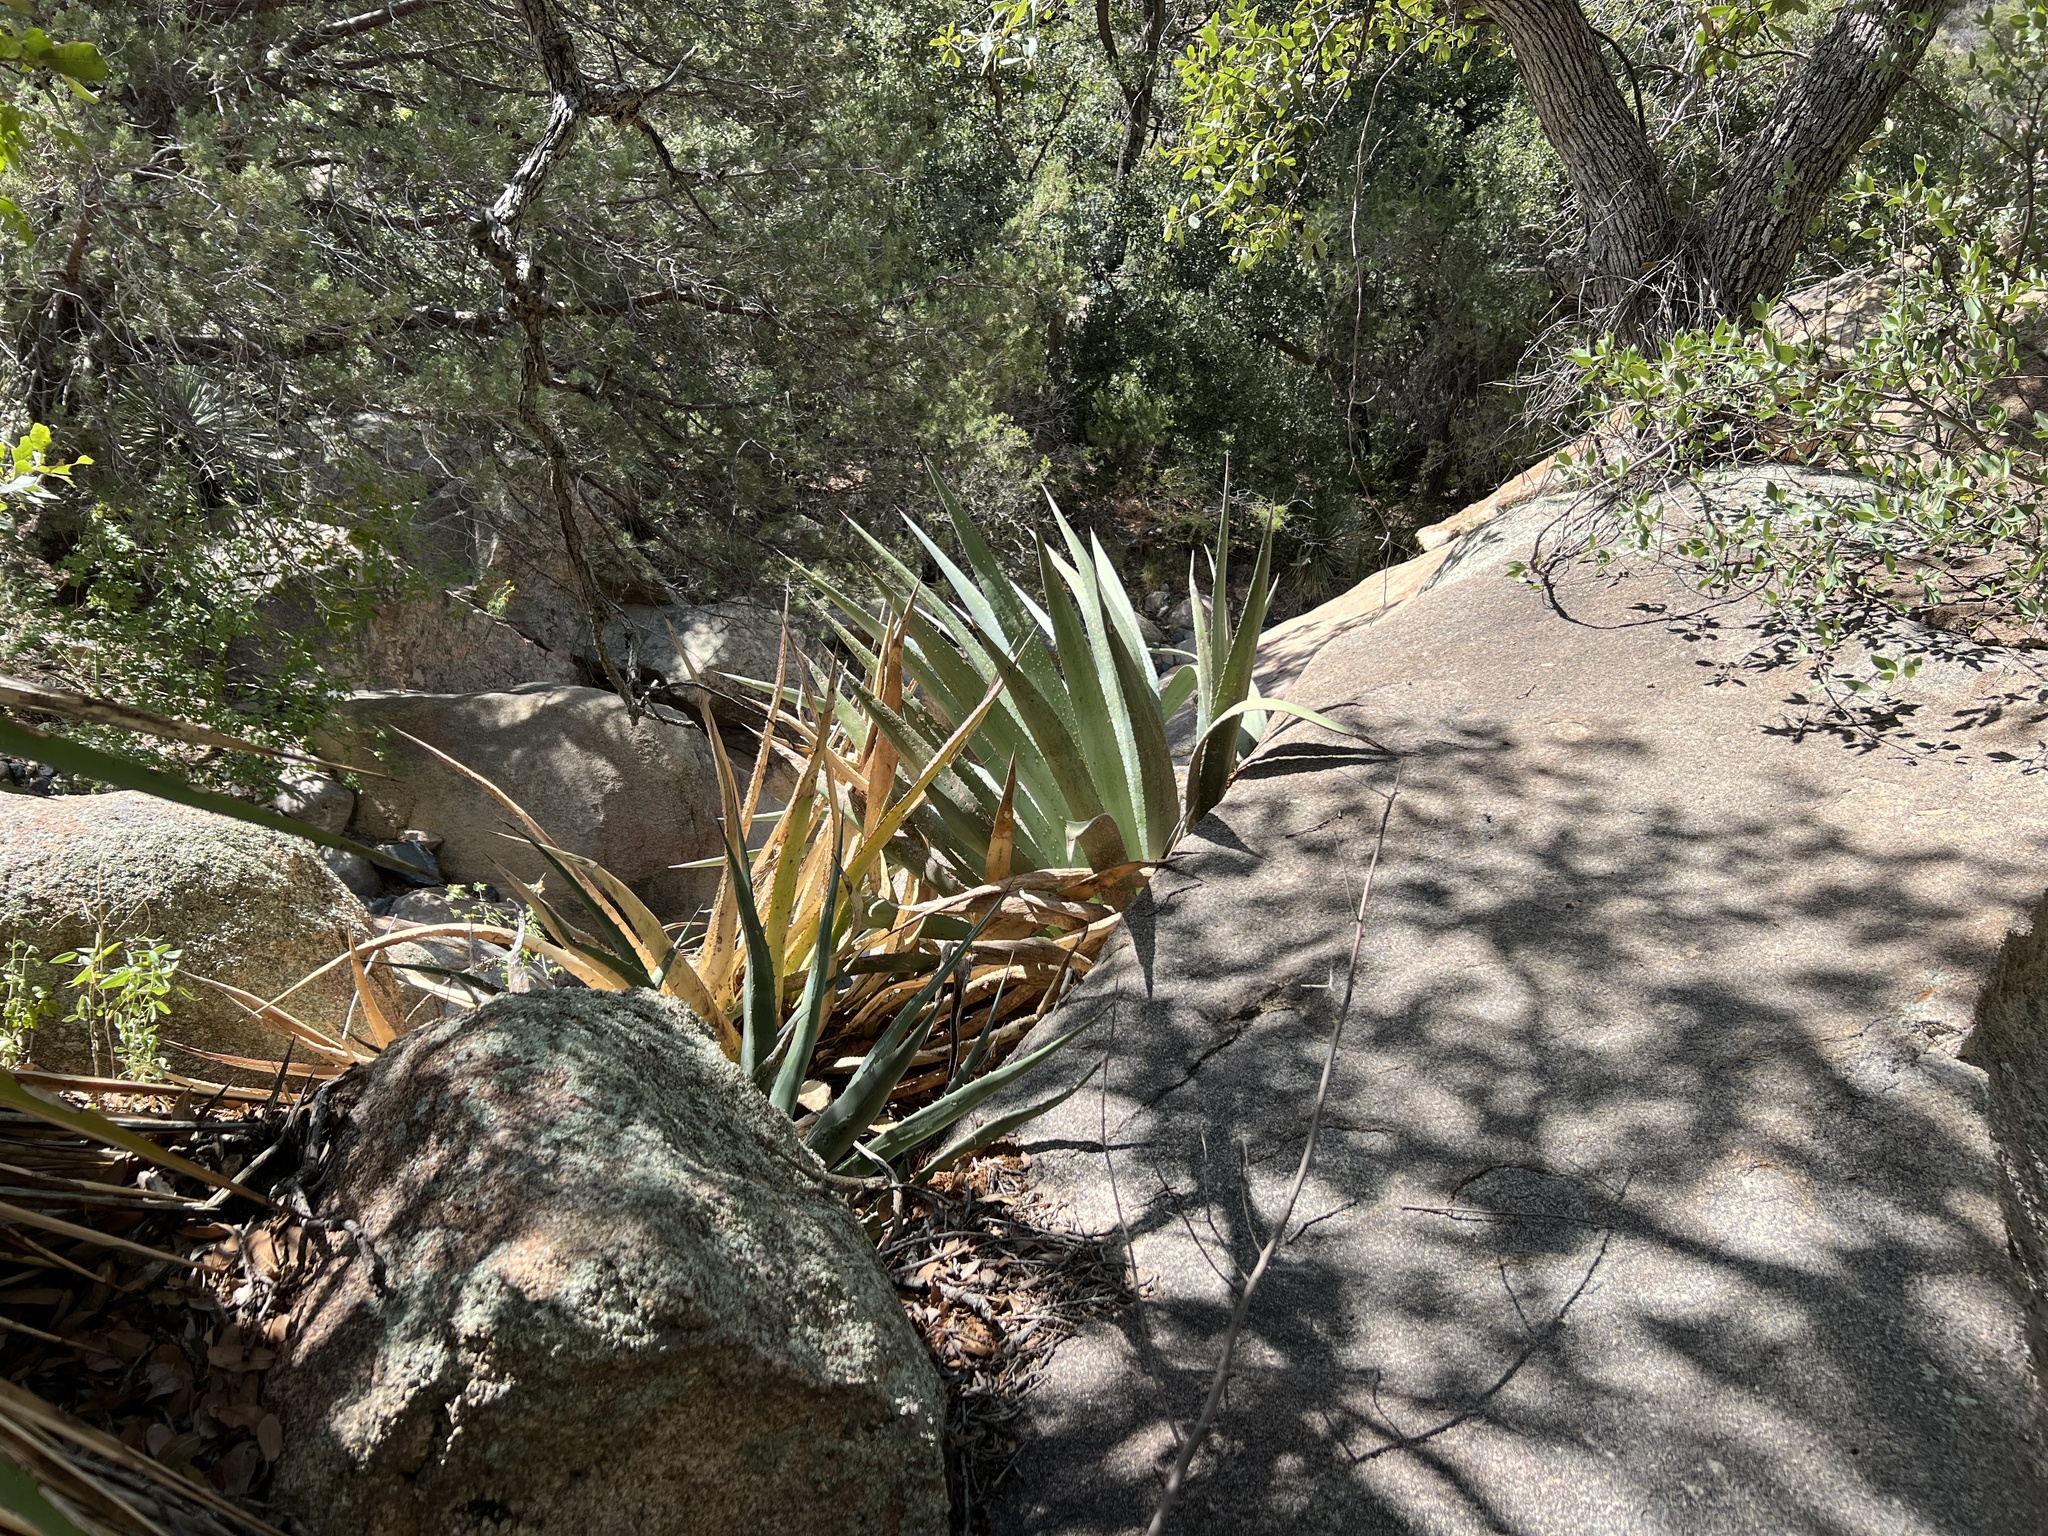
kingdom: Plantae
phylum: Tracheophyta
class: Liliopsida
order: Asparagales
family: Asparagaceae
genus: Agave
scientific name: Agave palmeri
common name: Palmer agave
